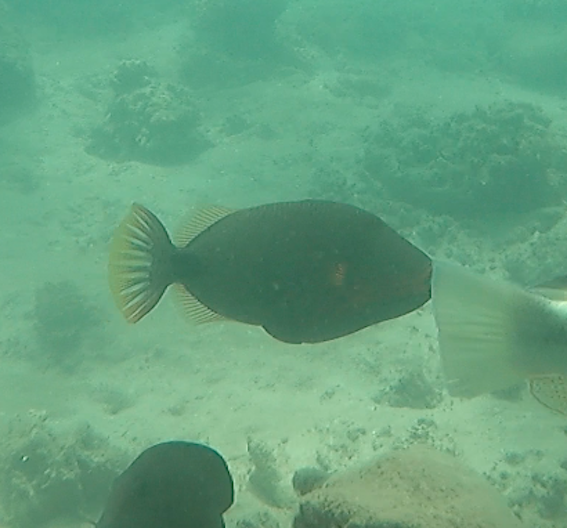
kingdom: Animalia
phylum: Chordata
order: Tetraodontiformes
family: Balistidae
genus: Balistapus
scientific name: Balistapus undulatus
